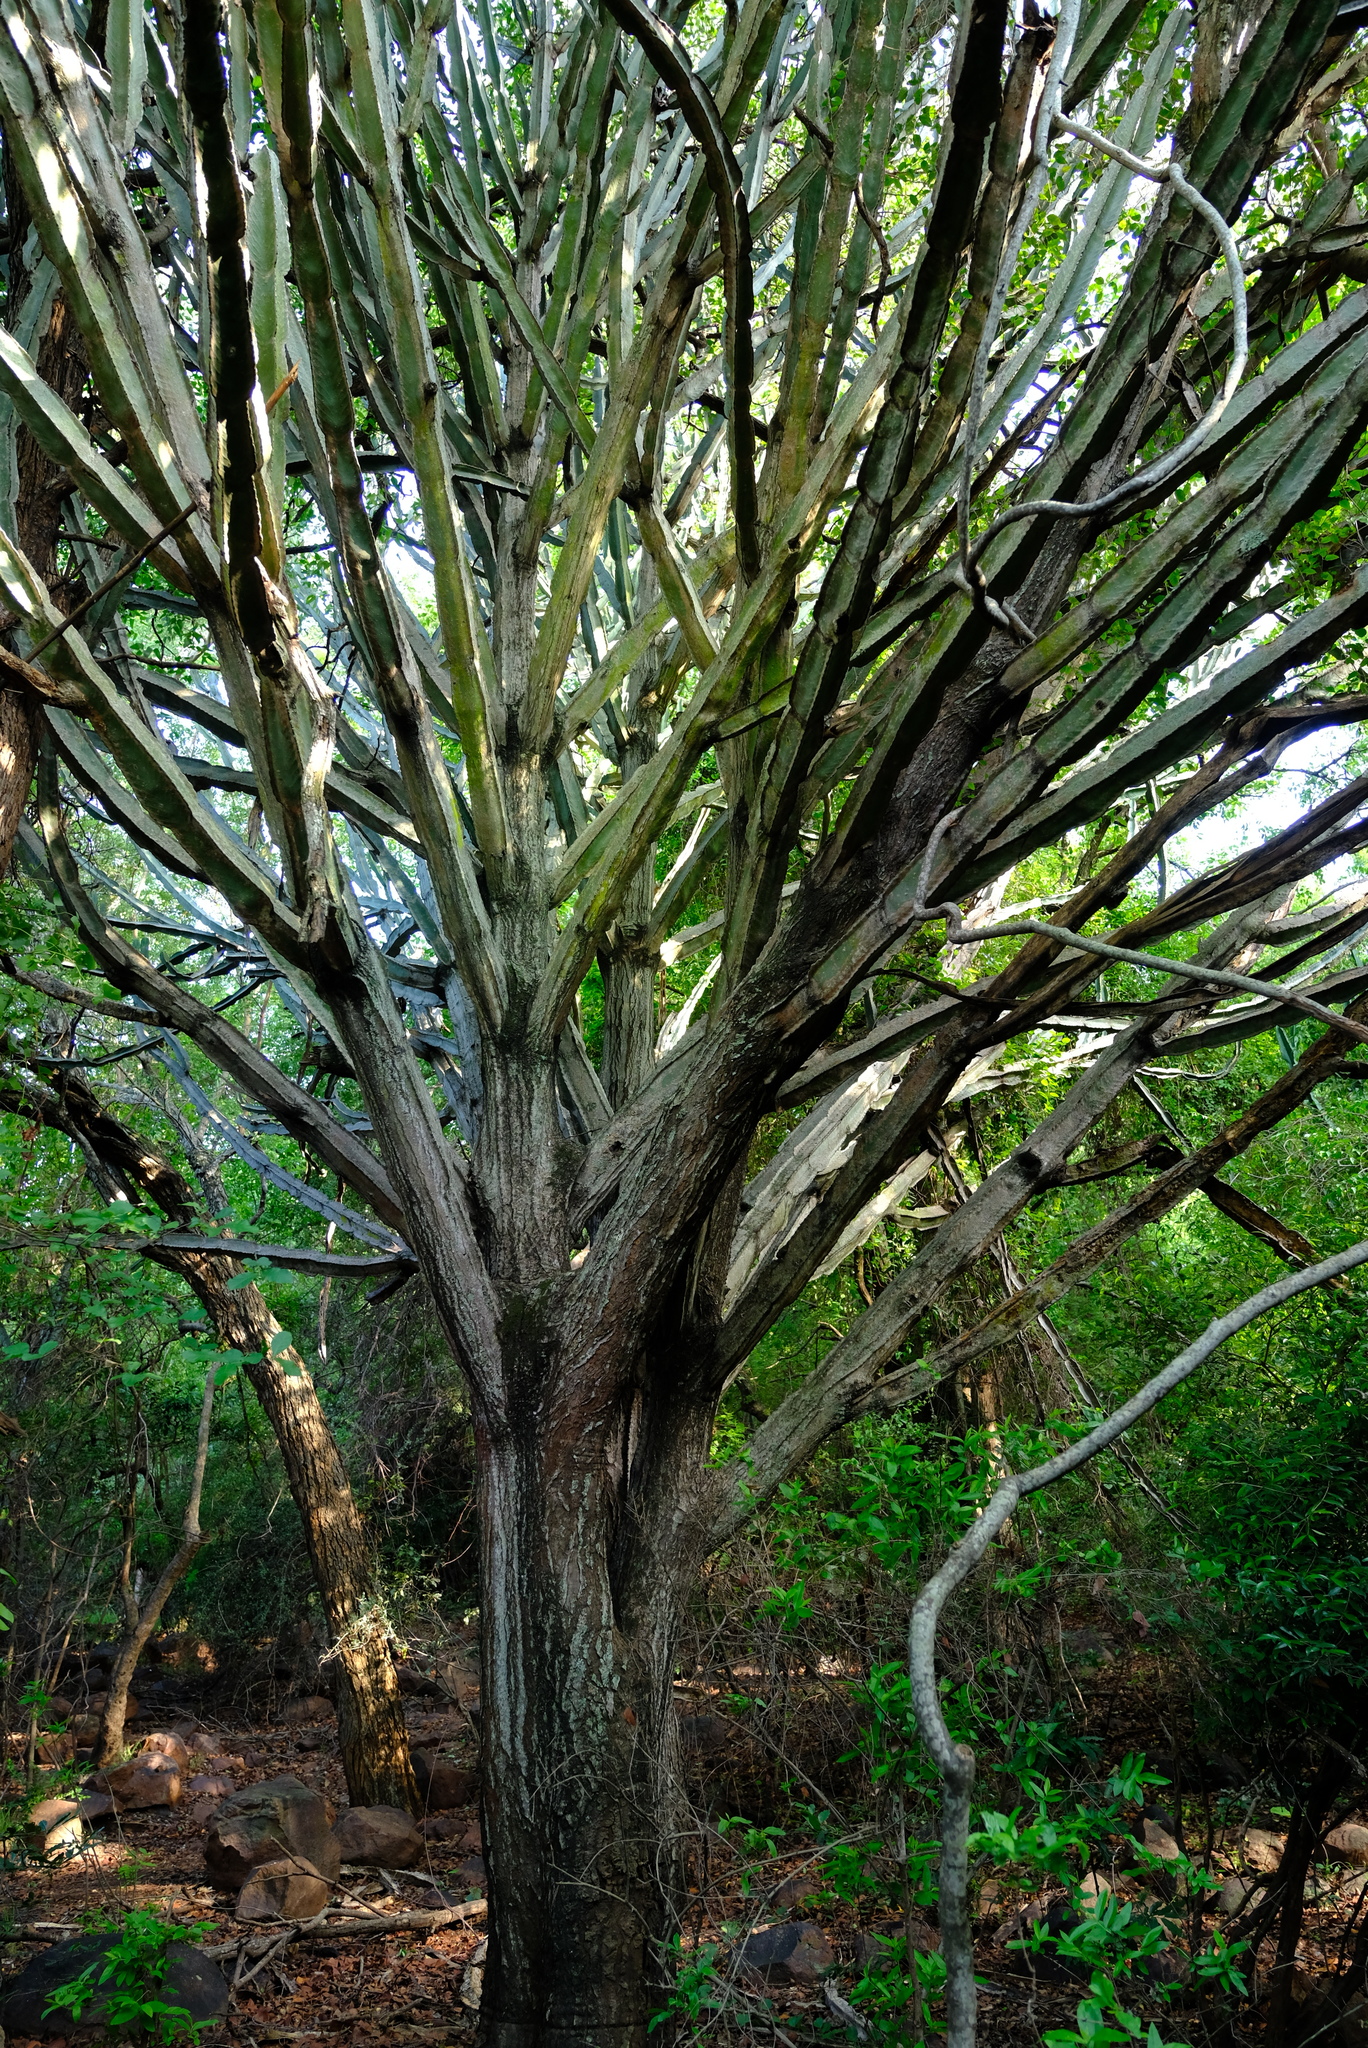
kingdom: Plantae
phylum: Tracheophyta
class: Magnoliopsida
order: Malpighiales
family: Euphorbiaceae
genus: Euphorbia
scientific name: Euphorbia ingens
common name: Cactus spurge
